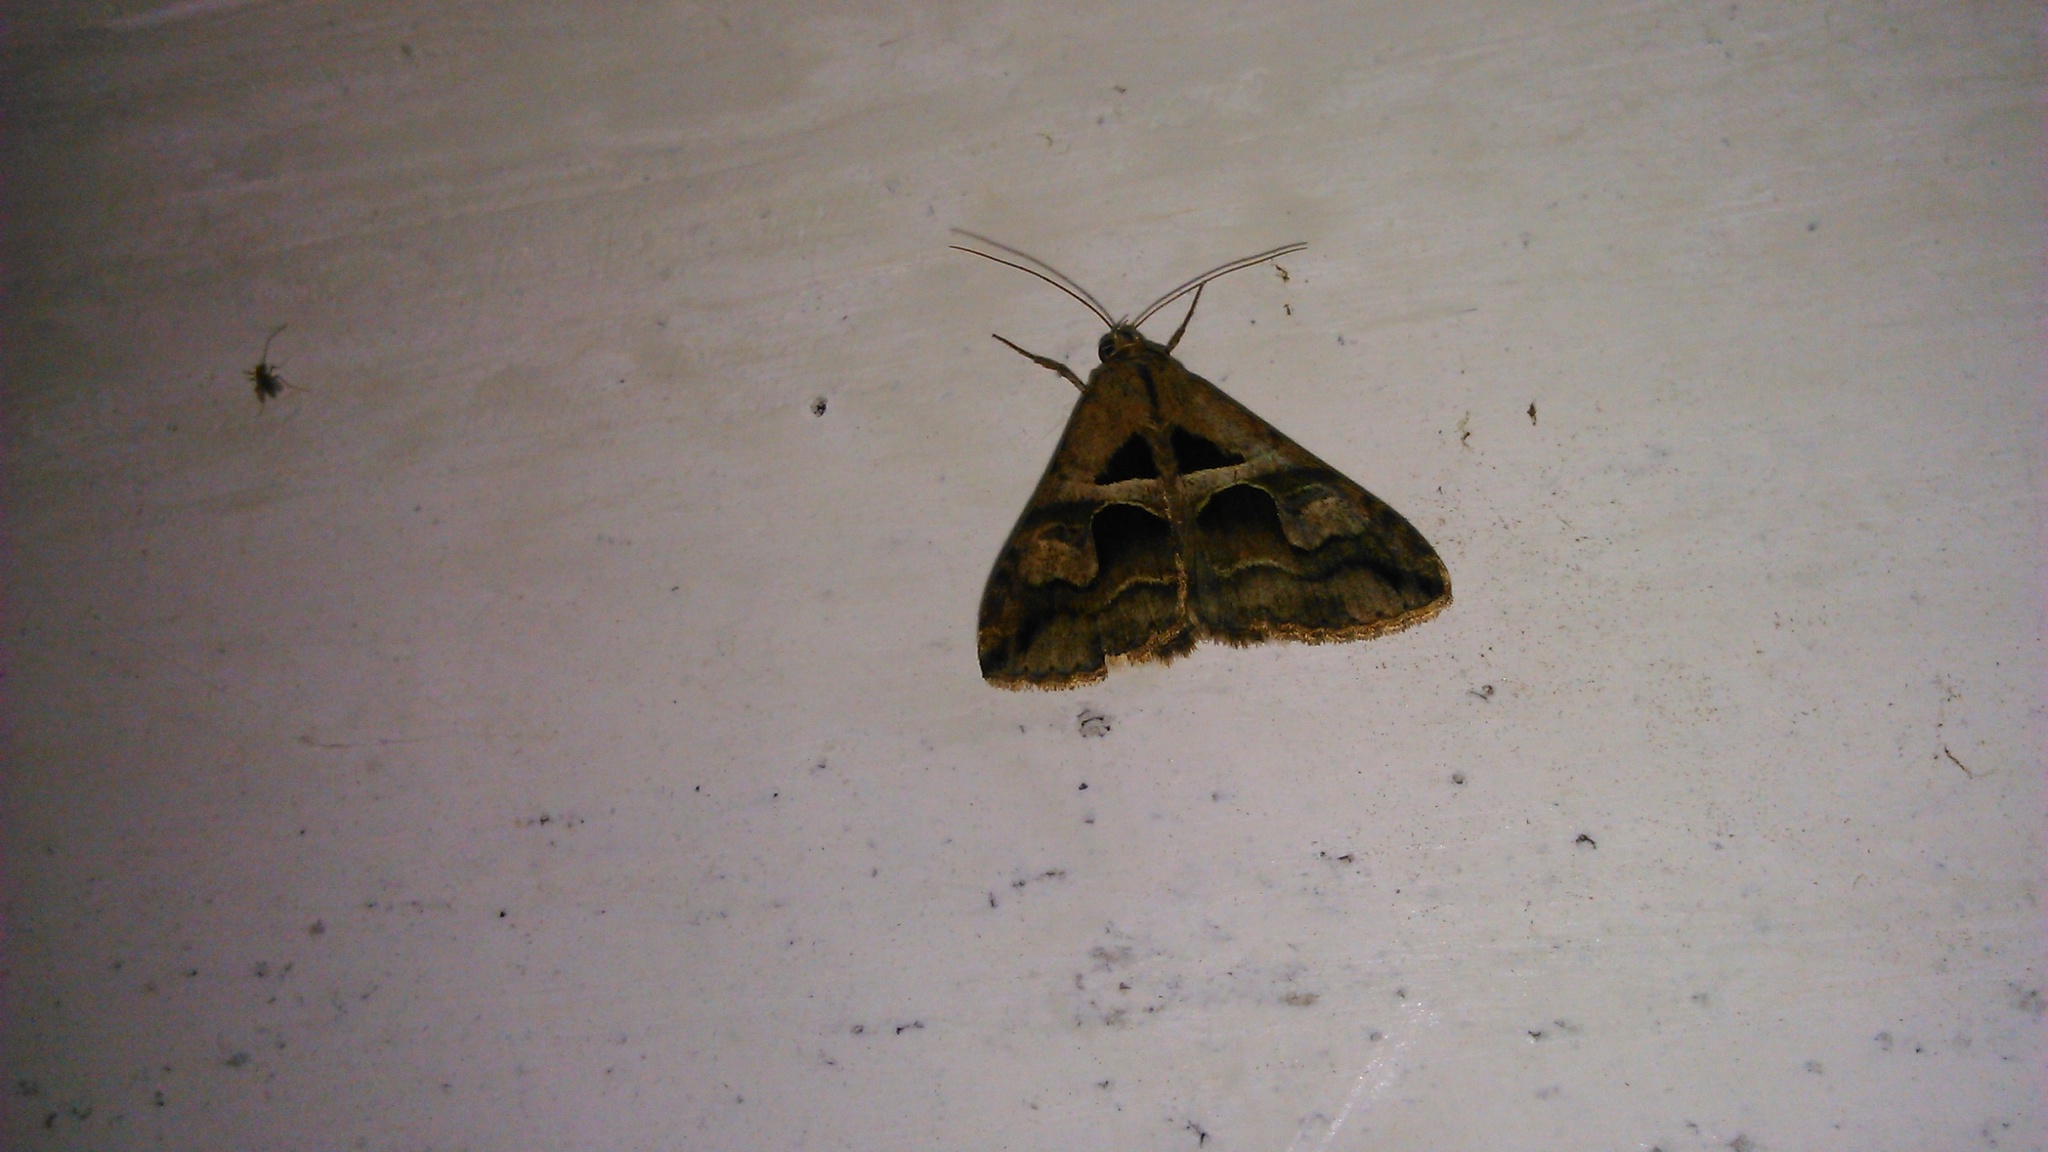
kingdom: Animalia
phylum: Arthropoda
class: Insecta
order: Lepidoptera
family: Erebidae
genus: Melipotis
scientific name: Melipotis cellaris
